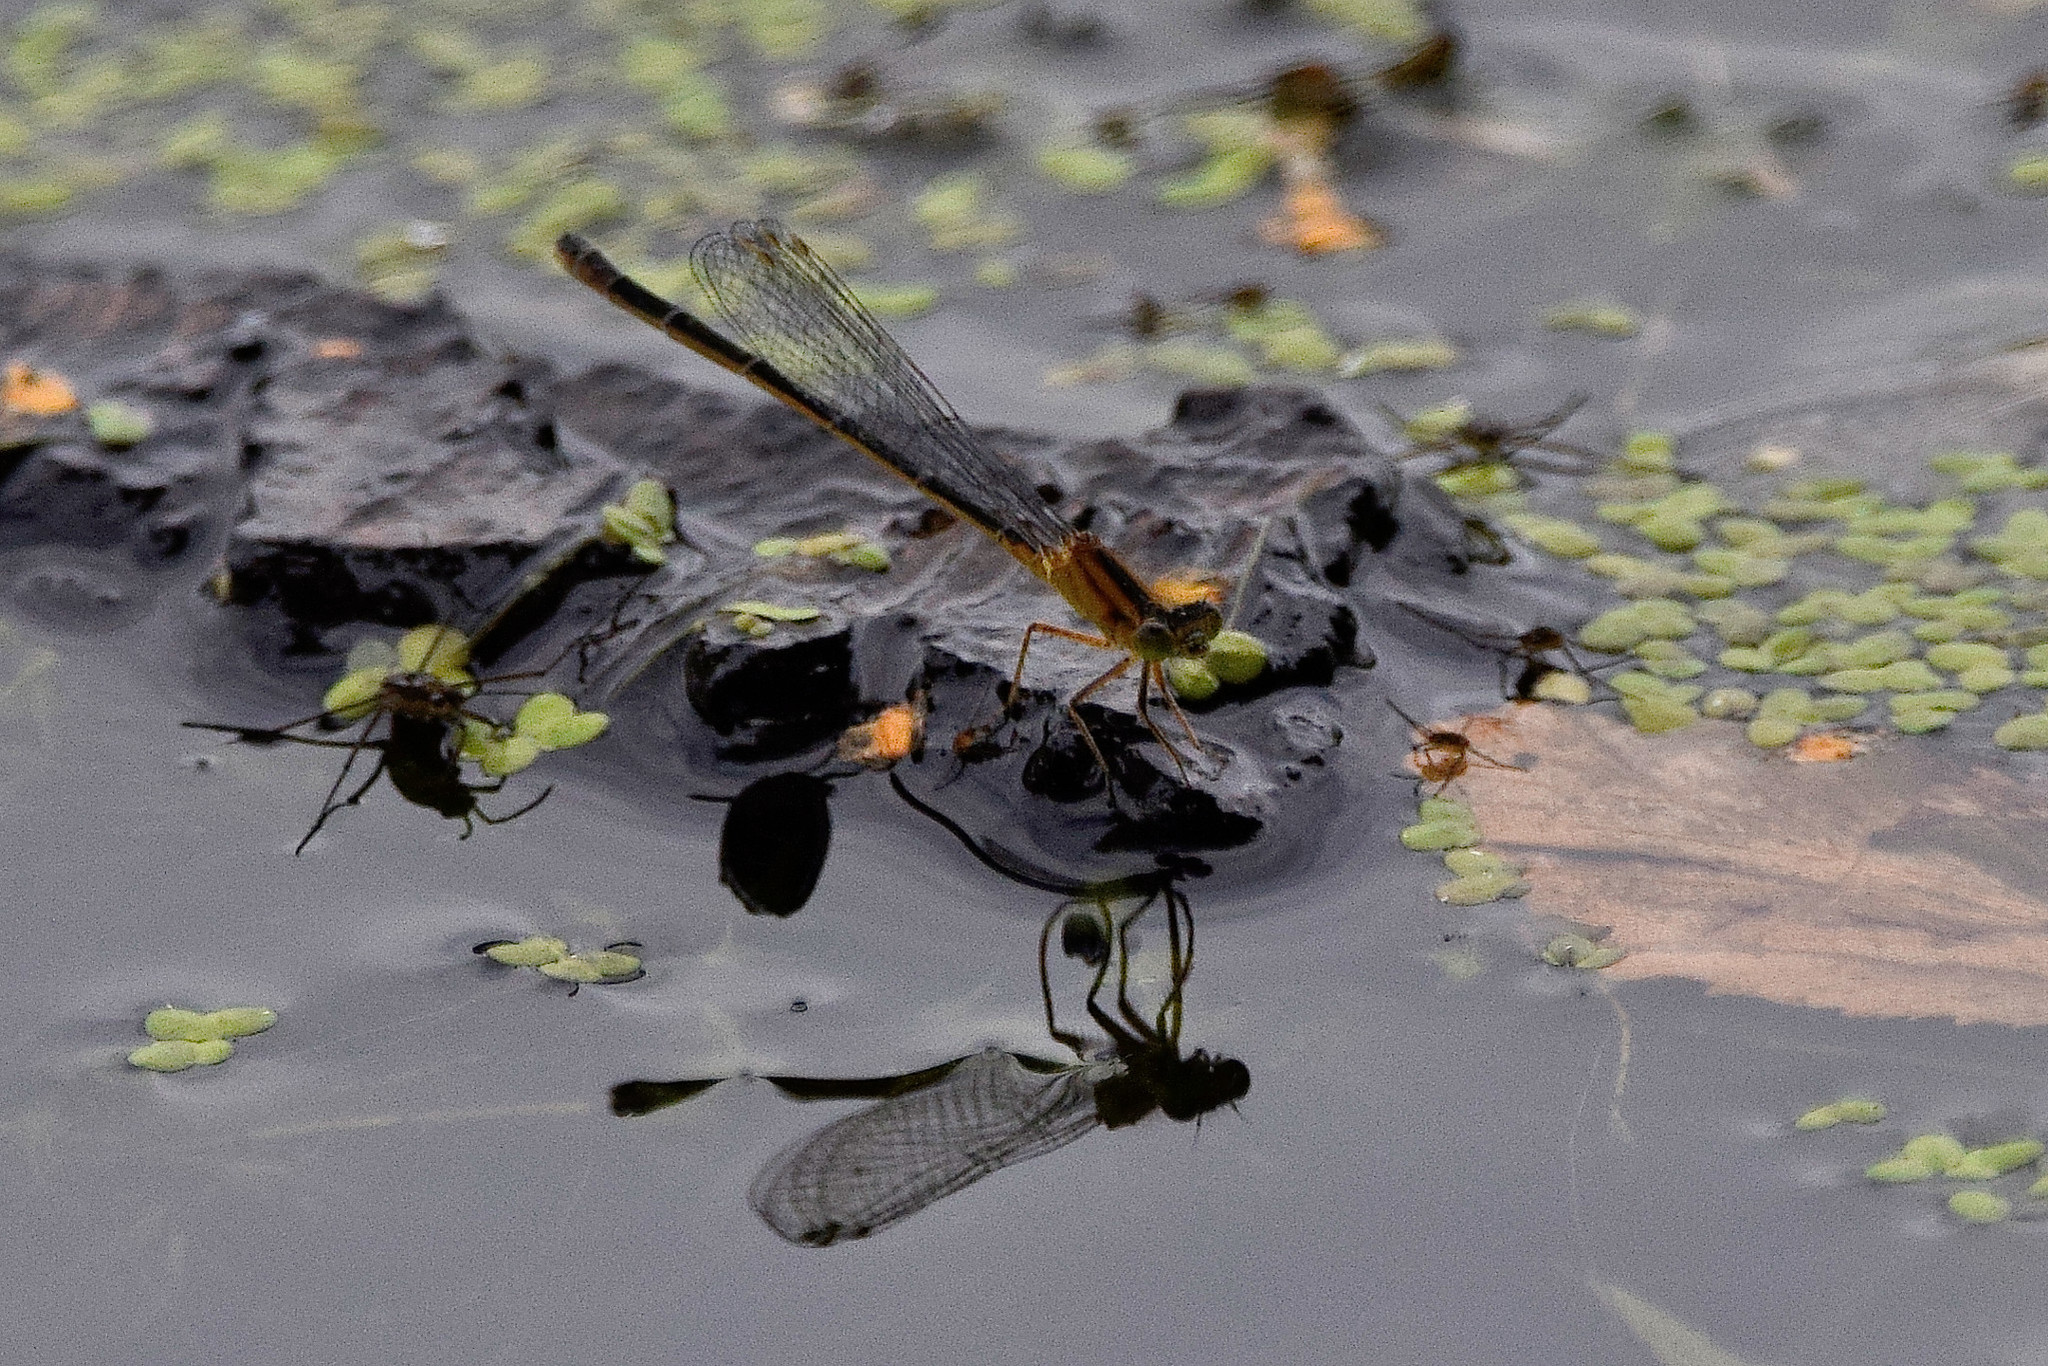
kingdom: Animalia
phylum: Arthropoda
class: Insecta
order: Odonata
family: Coenagrionidae
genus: Ischnura
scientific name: Ischnura elegans
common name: Blue-tailed damselfly
